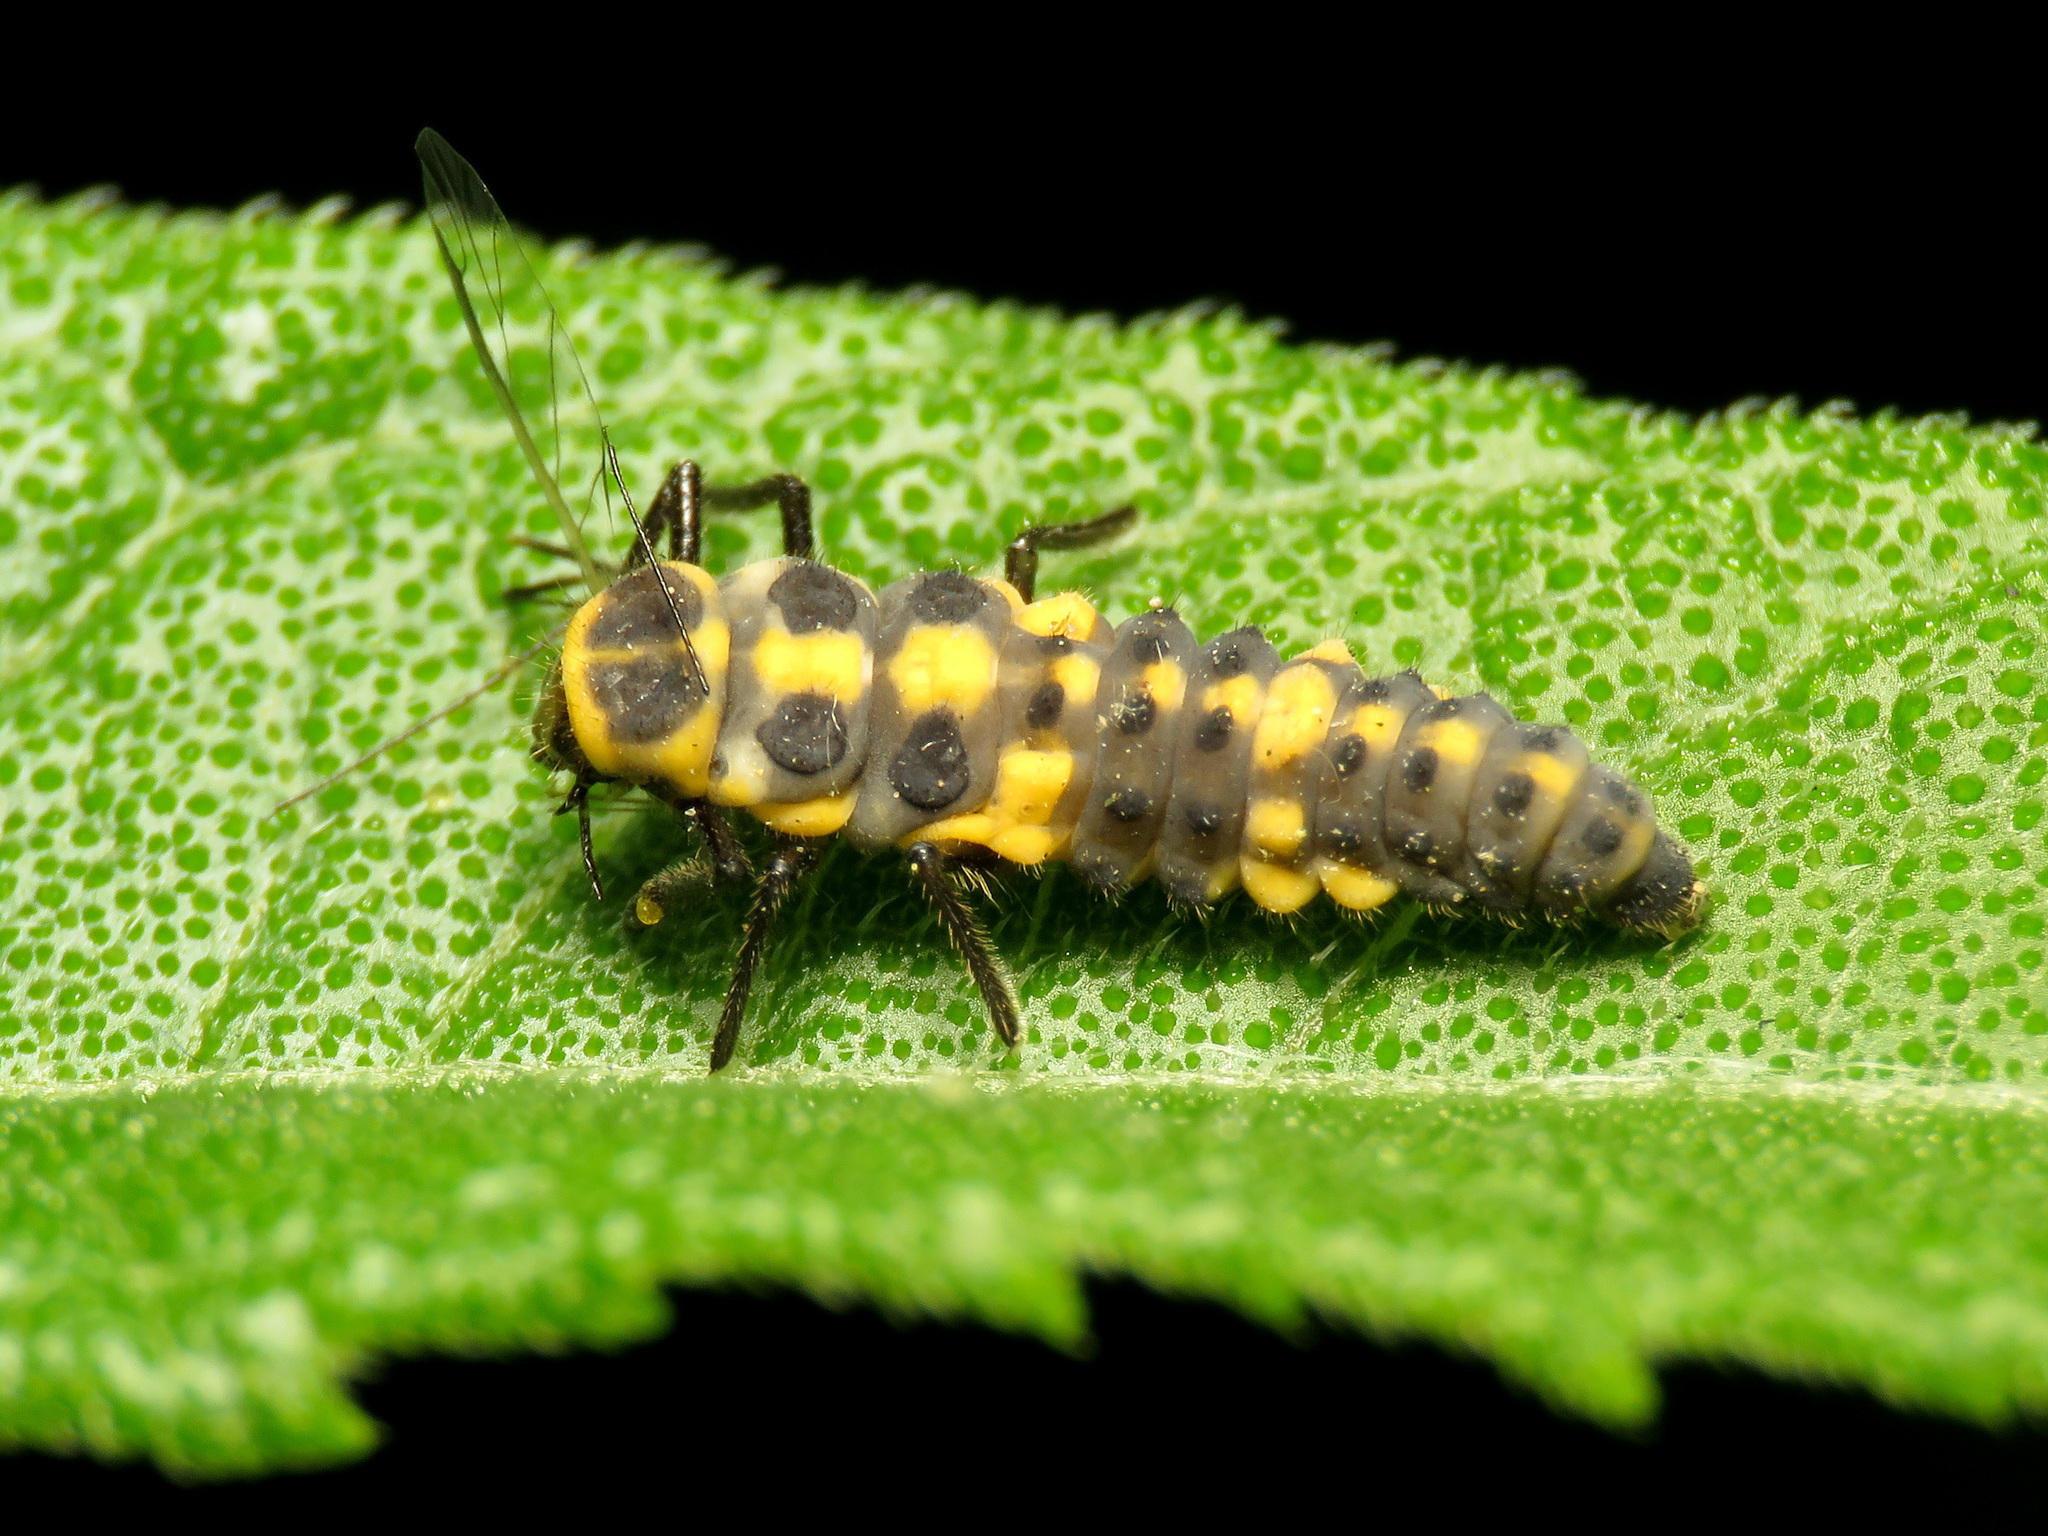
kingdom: Animalia
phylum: Arthropoda
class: Insecta
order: Coleoptera
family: Coccinellidae
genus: Cycloneda
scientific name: Cycloneda munda
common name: Polished lady beetle
